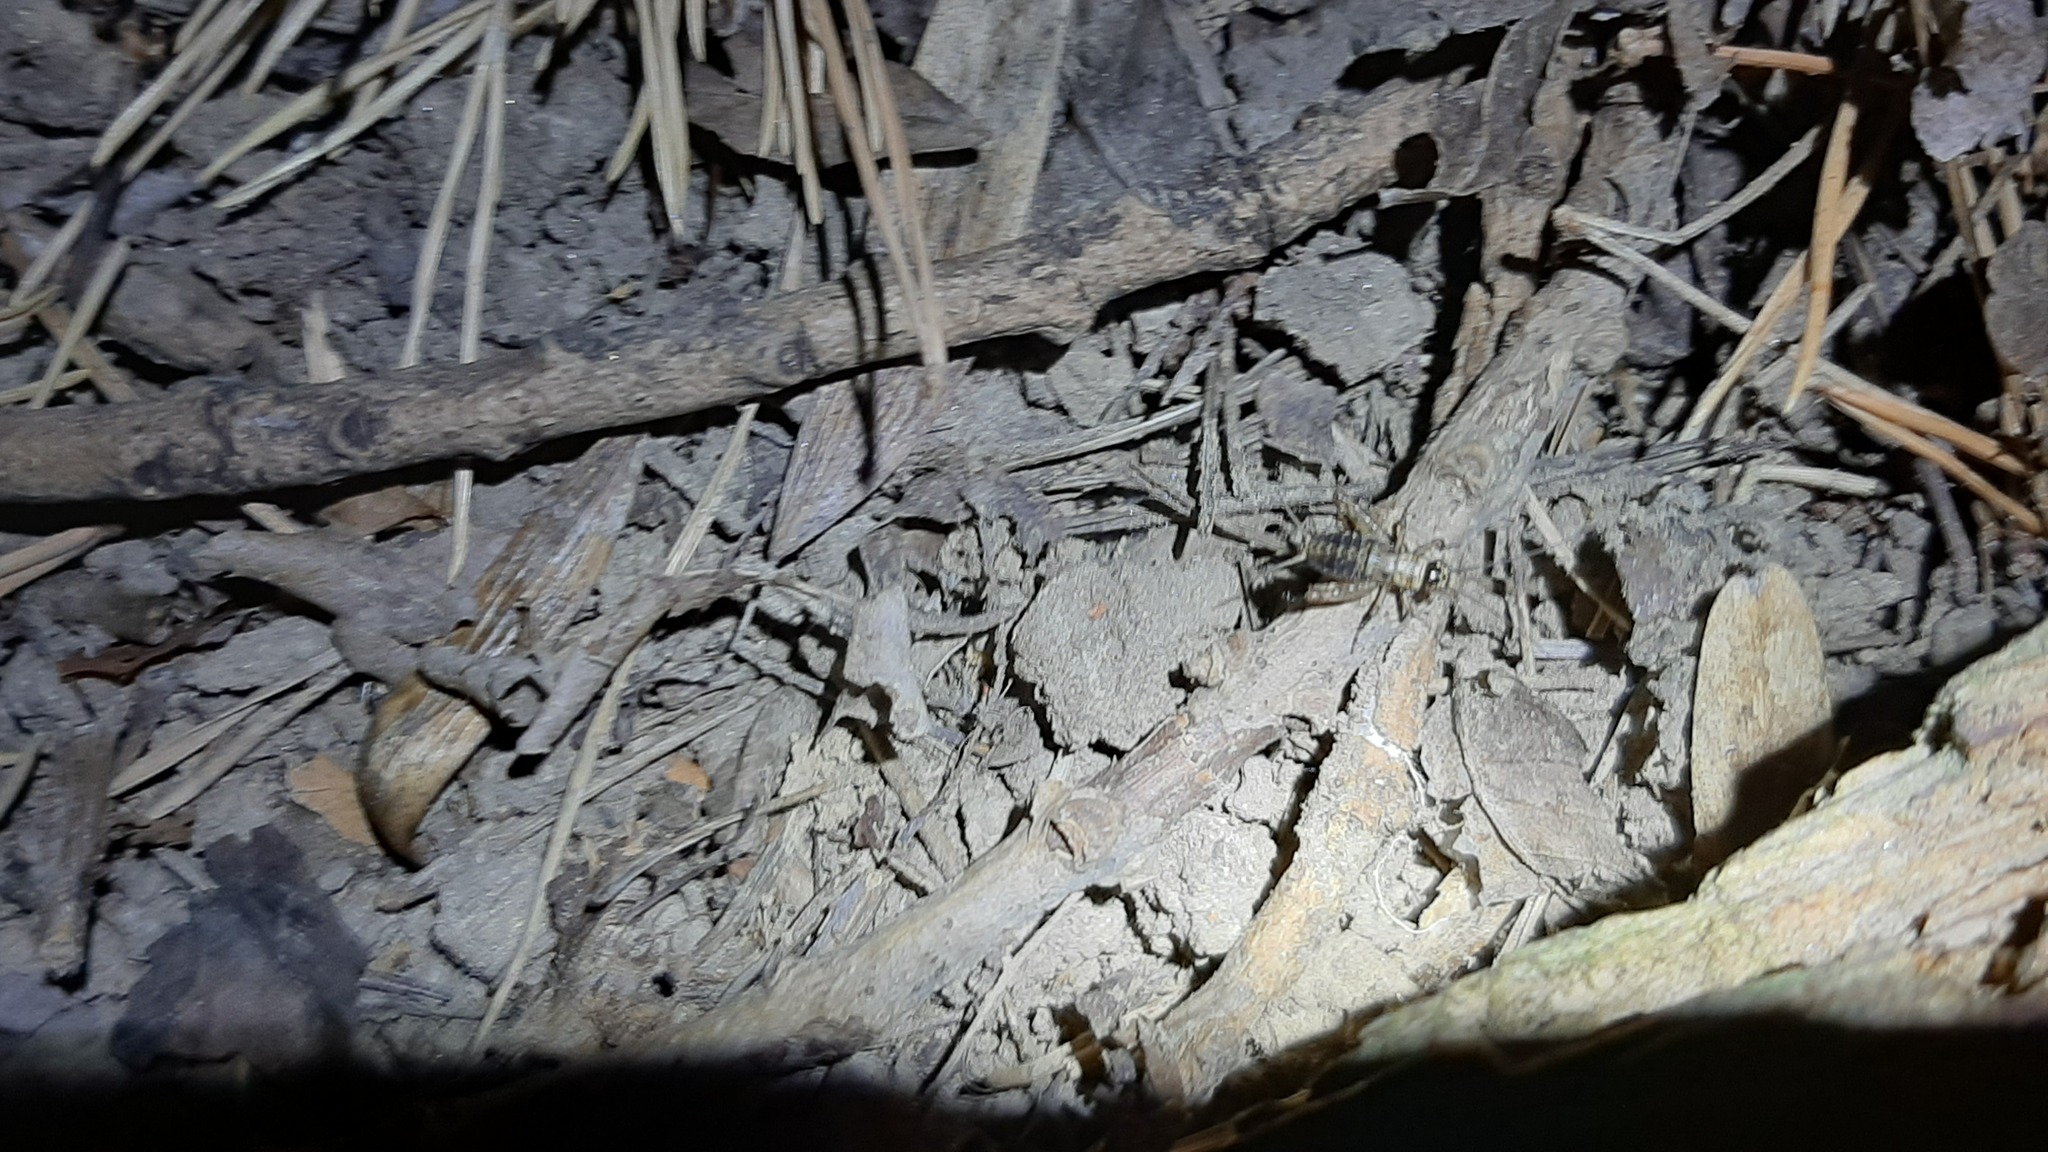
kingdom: Animalia
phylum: Arthropoda
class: Insecta
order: Orthoptera
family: Trigonidiidae
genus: Nemobius
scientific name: Nemobius sylvestris
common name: Wood-cricket
